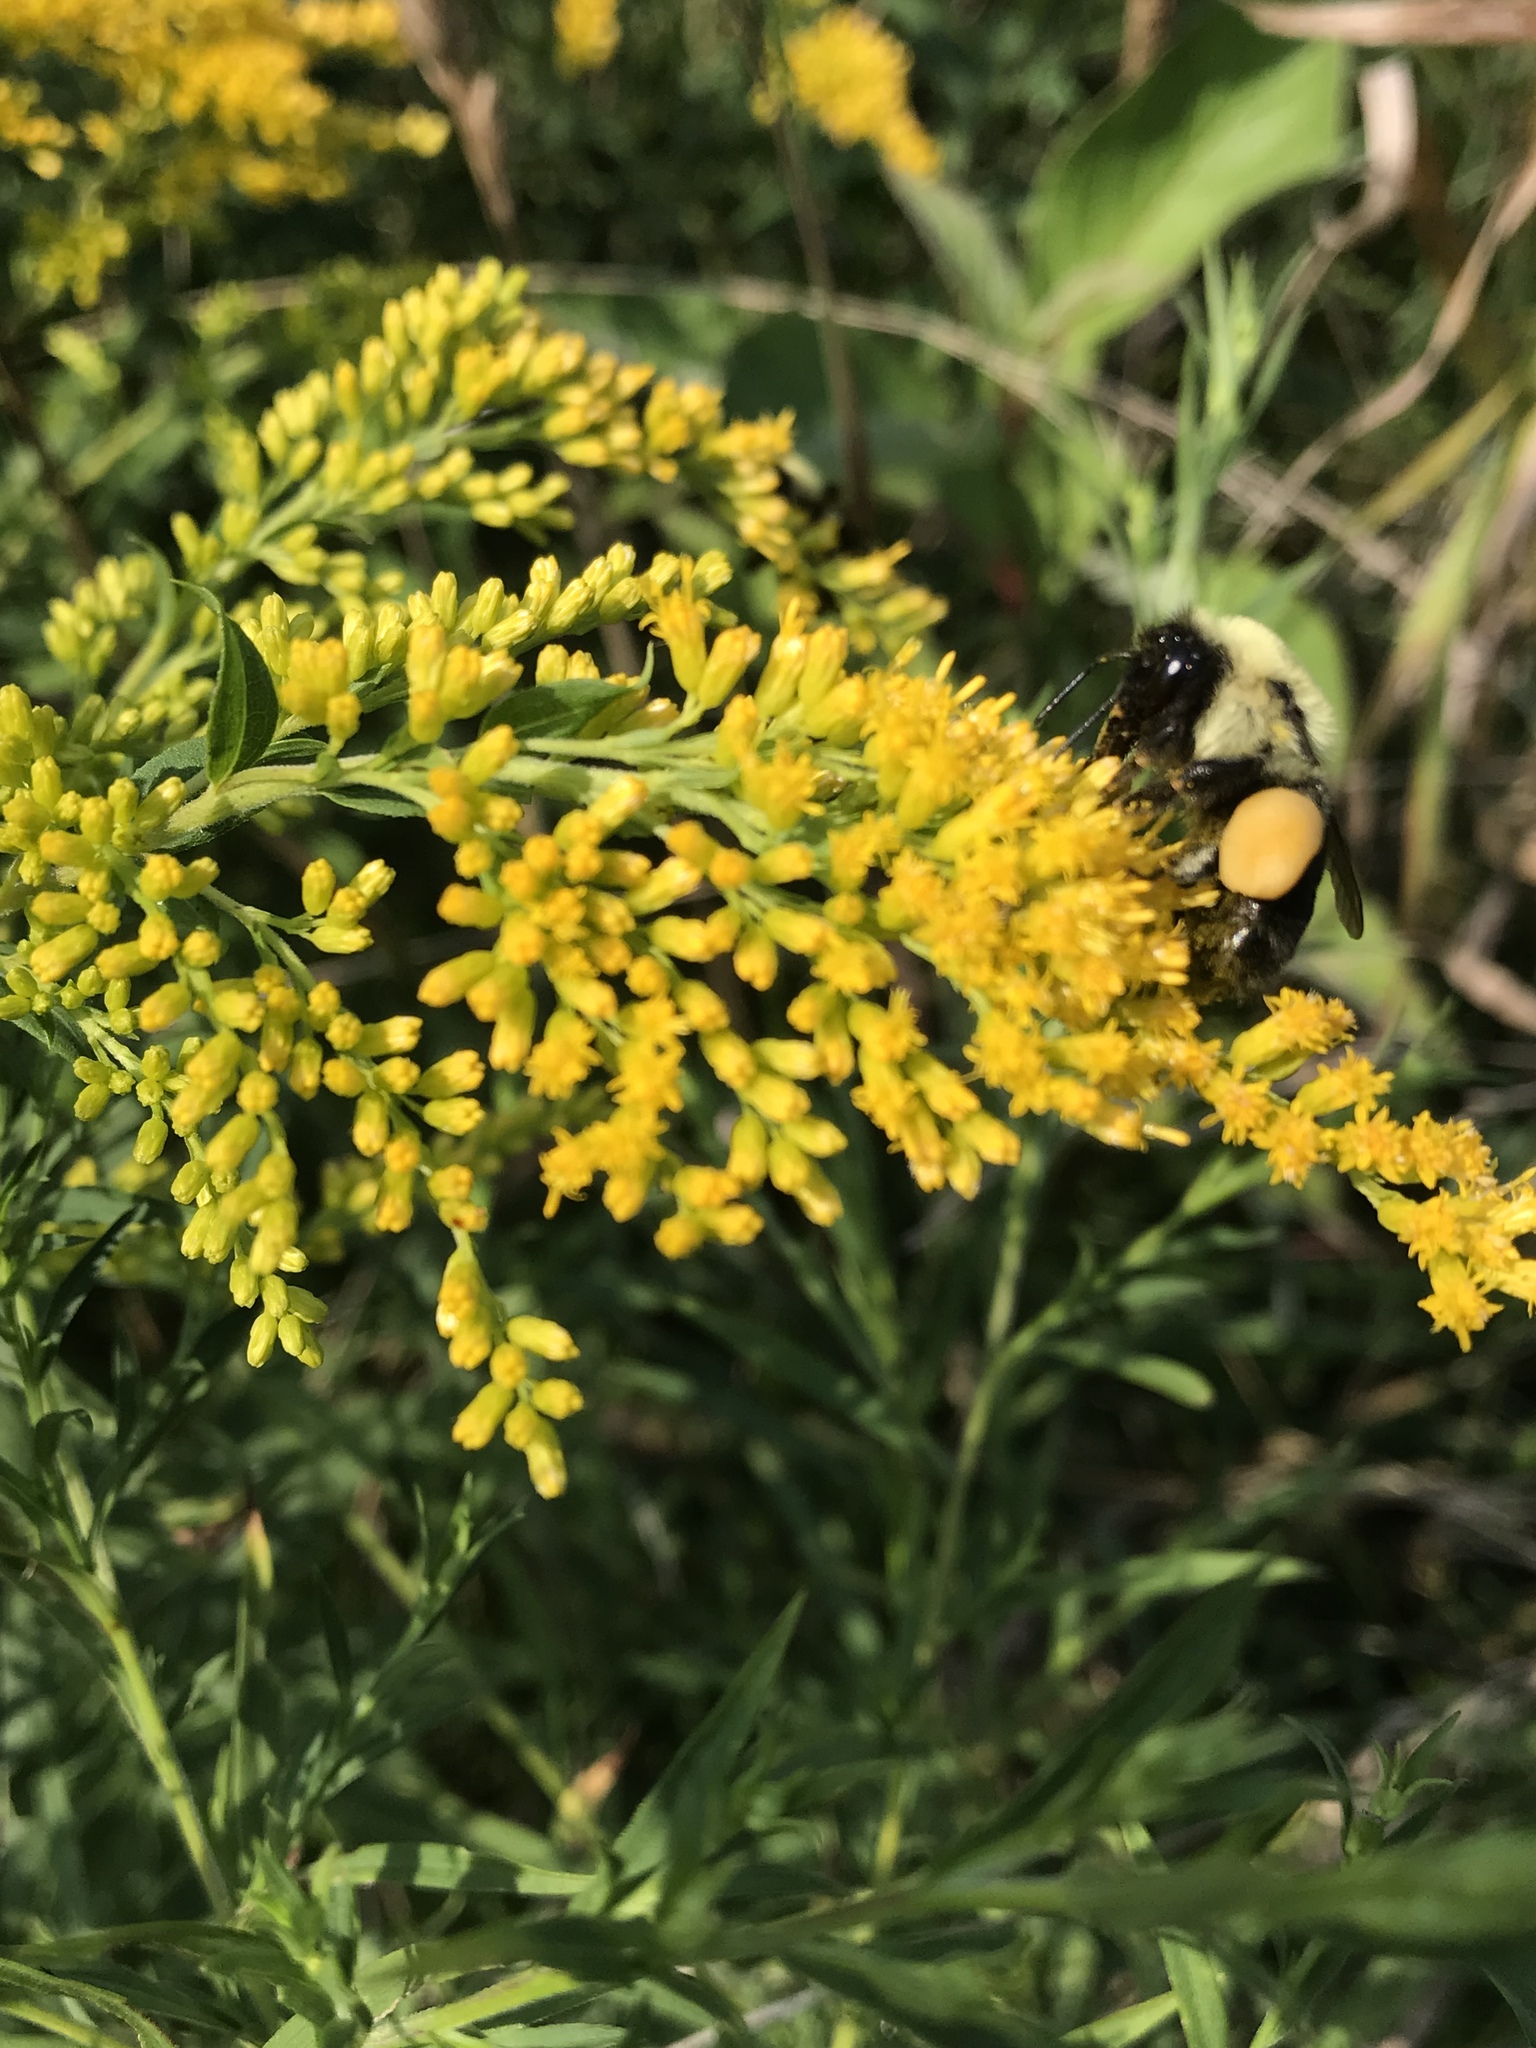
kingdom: Animalia
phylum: Arthropoda
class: Insecta
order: Hymenoptera
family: Apidae
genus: Bombus
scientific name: Bombus impatiens
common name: Common eastern bumble bee
